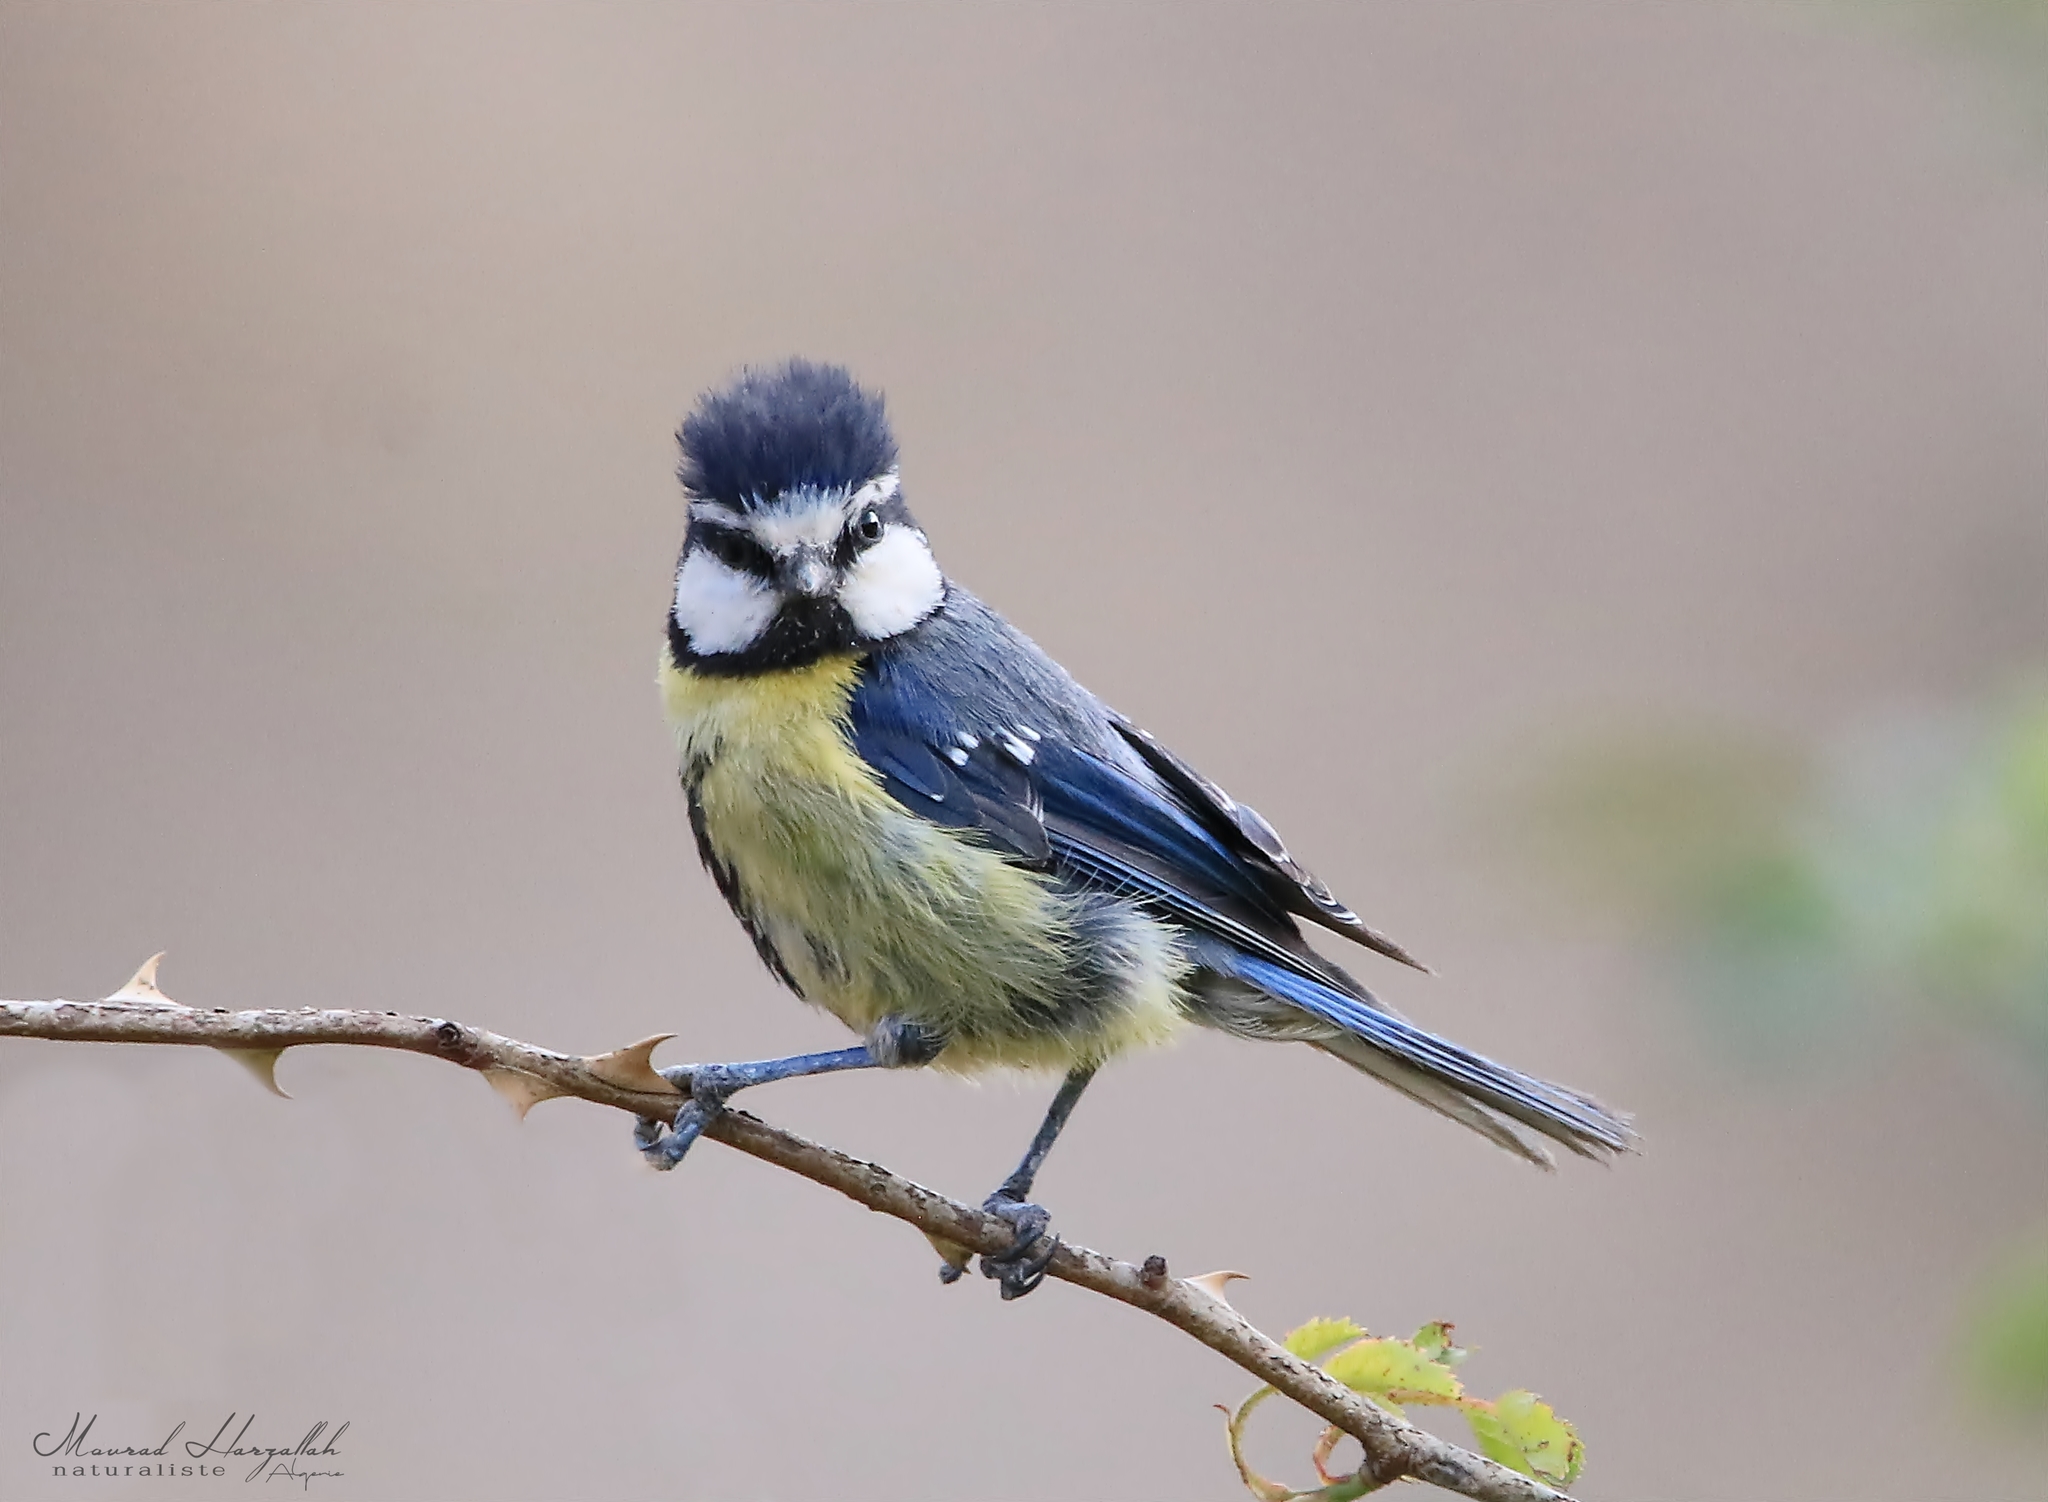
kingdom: Animalia
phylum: Chordata
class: Aves
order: Passeriformes
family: Paridae
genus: Cyanistes
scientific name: Cyanistes teneriffae
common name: African blue tit
